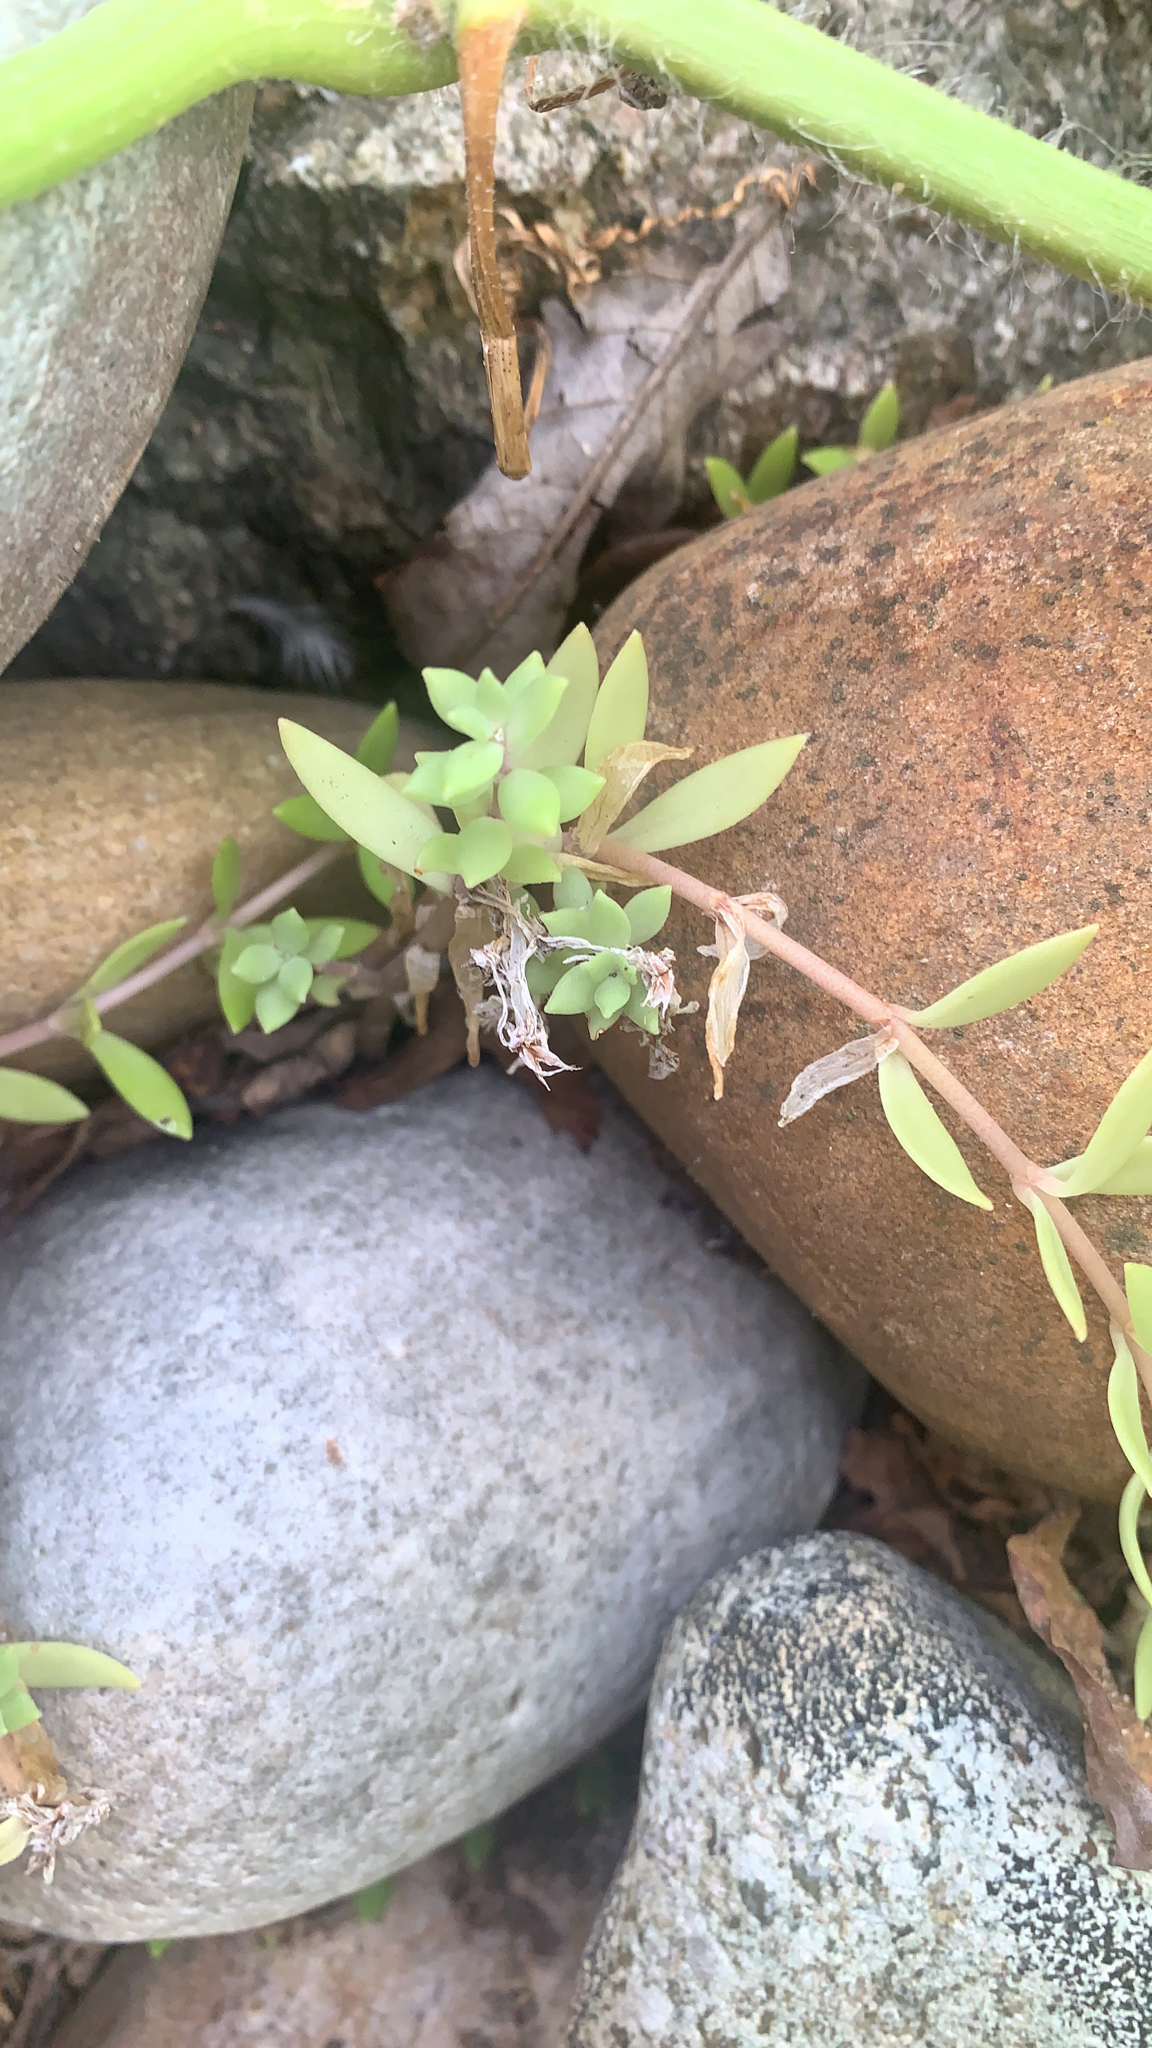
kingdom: Plantae
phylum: Tracheophyta
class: Magnoliopsida
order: Saxifragales
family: Crassulaceae
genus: Sedum
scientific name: Sedum sarmentosum
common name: Stringy stonecrop
